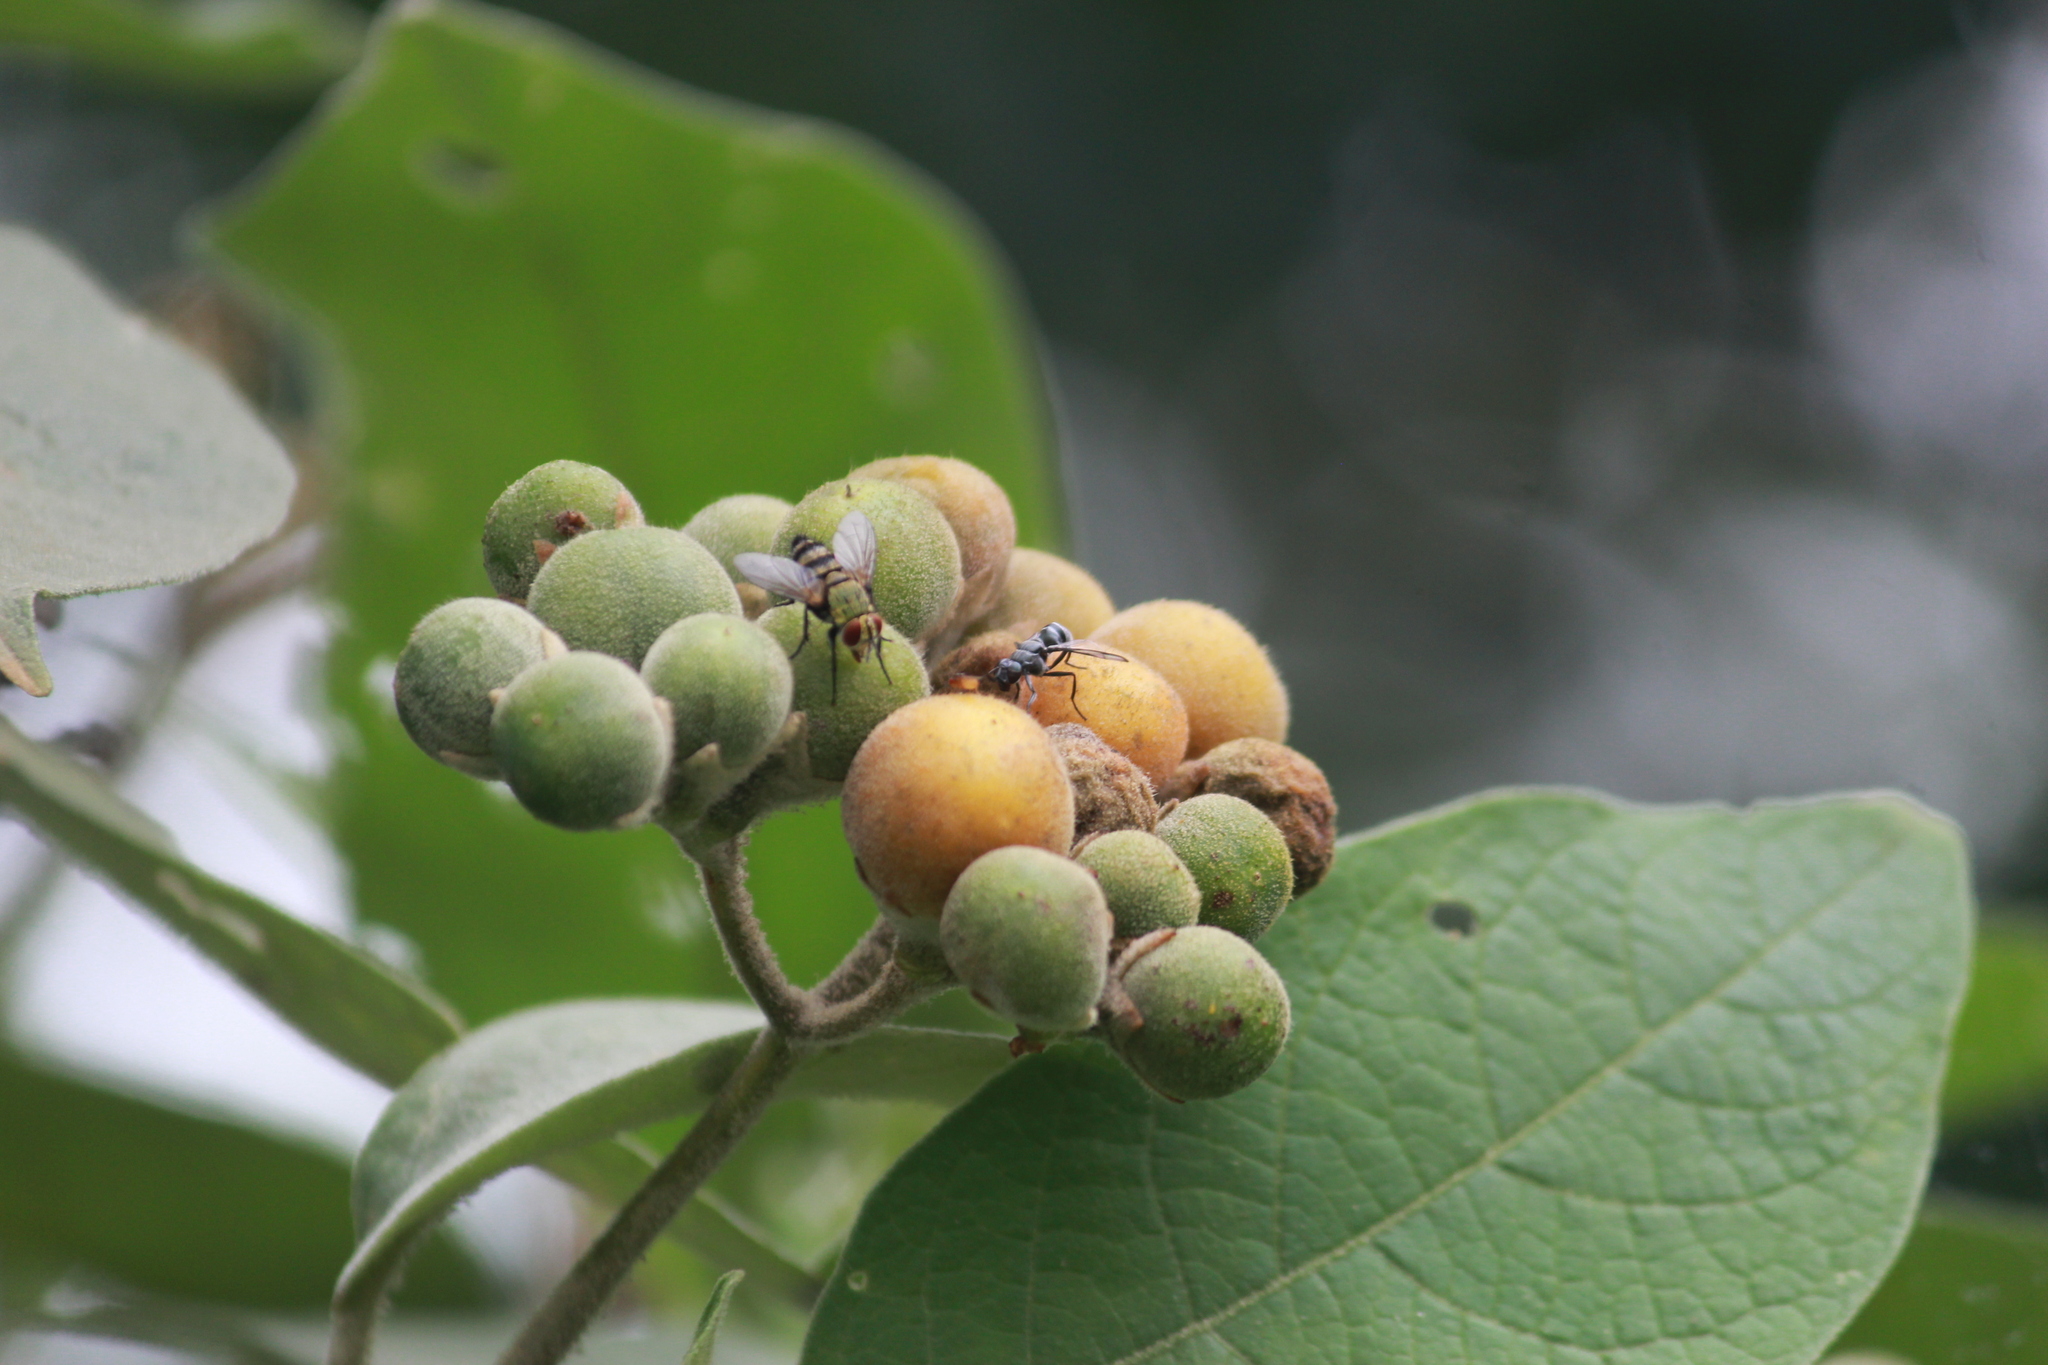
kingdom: Plantae
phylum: Tracheophyta
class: Magnoliopsida
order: Solanales
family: Solanaceae
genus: Solanum
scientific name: Solanum mauritianum
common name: Earleaf nightshade
